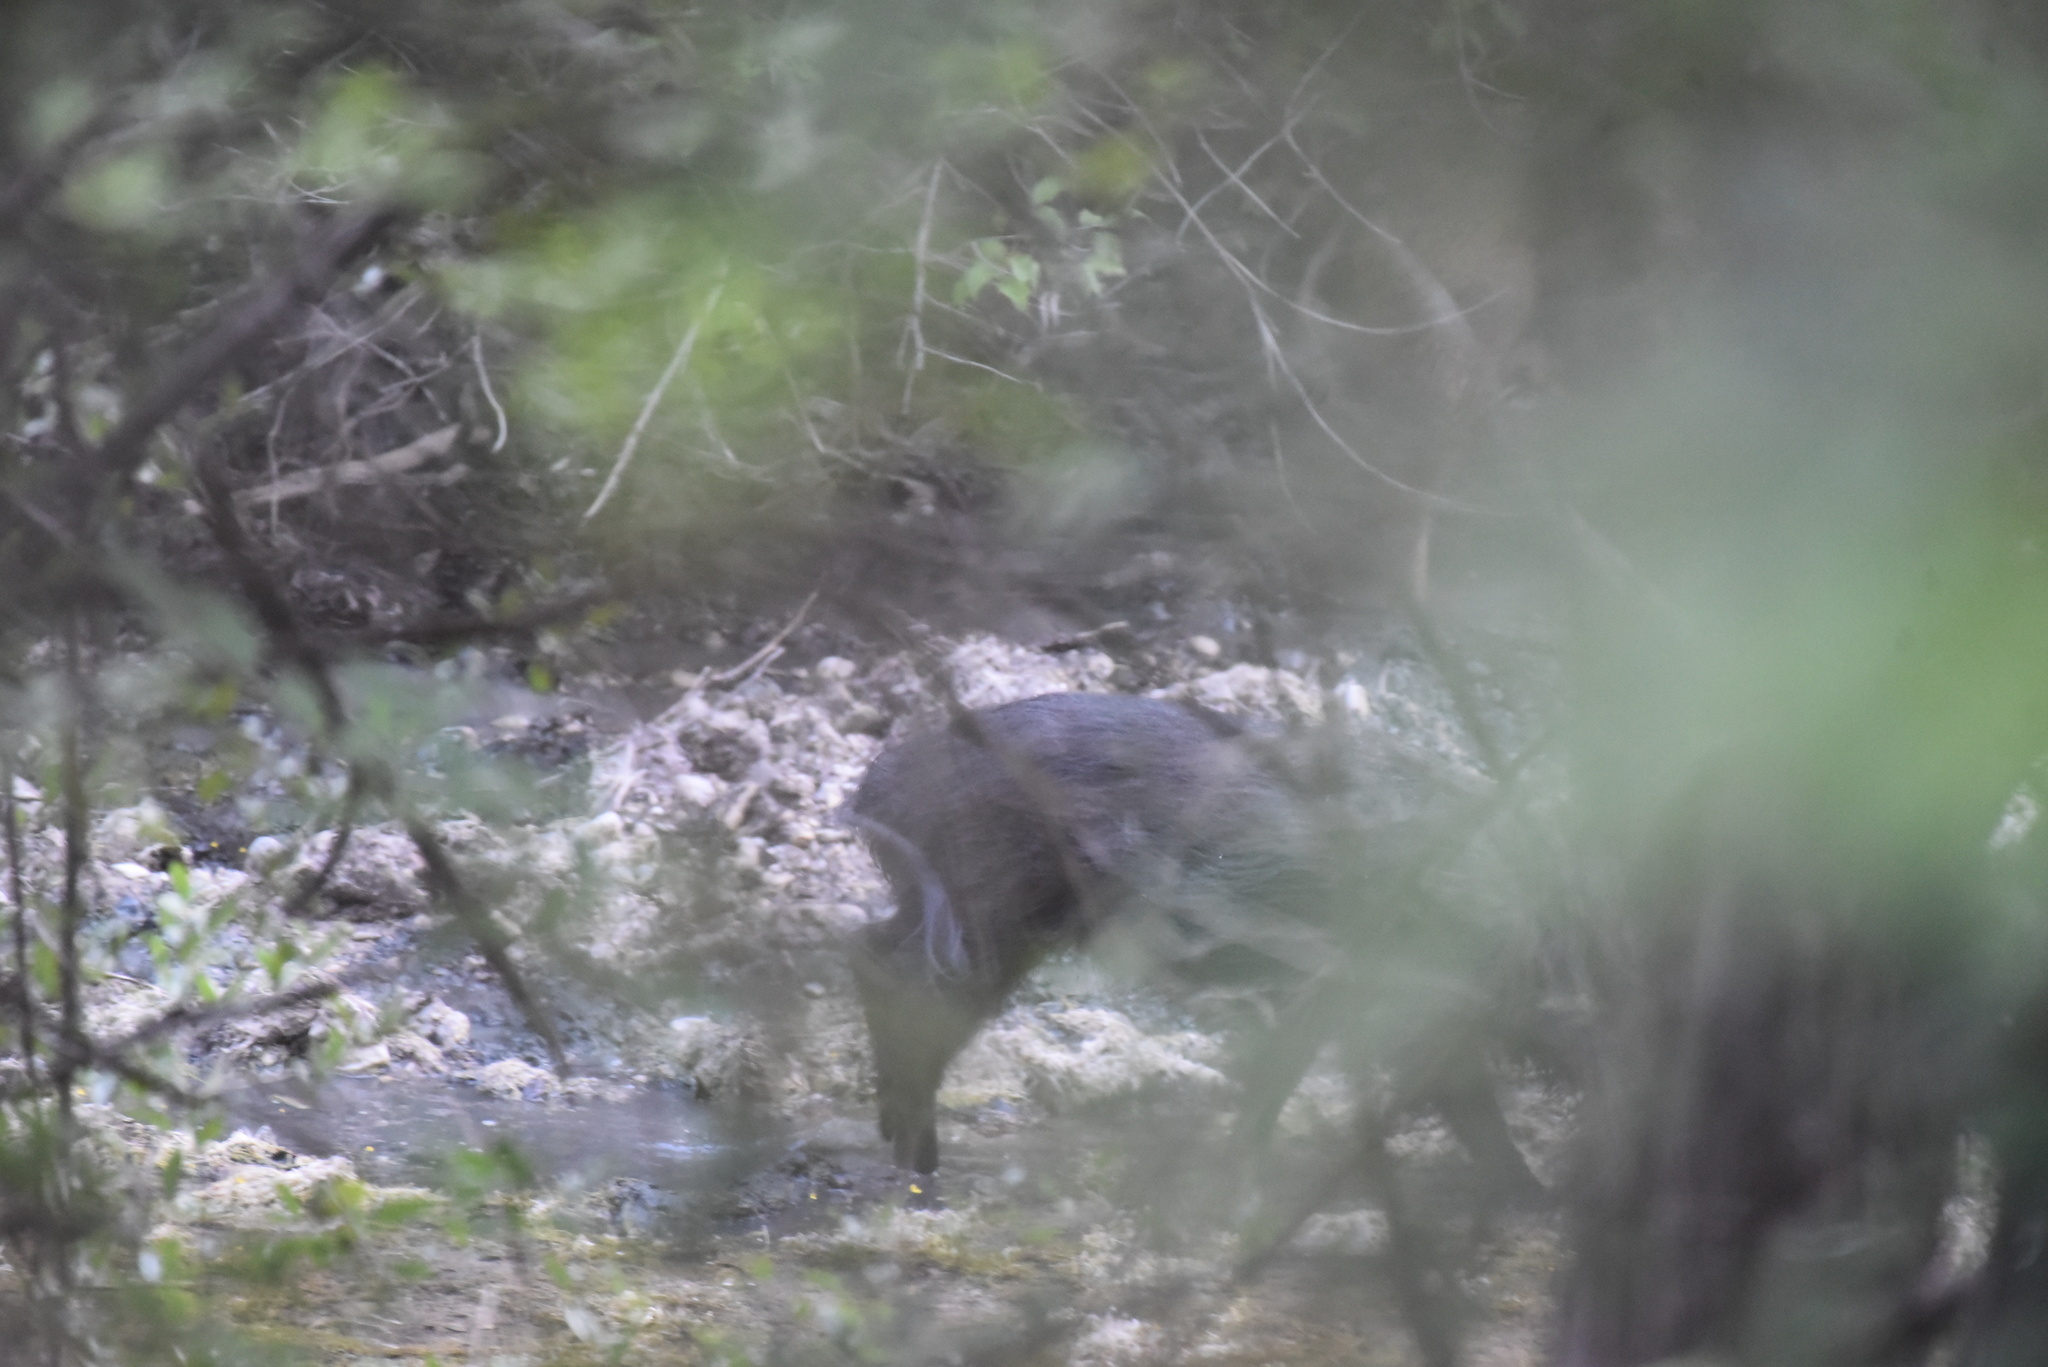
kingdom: Animalia
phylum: Chordata
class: Mammalia
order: Artiodactyla
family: Suidae
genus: Sus
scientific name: Sus scrofa
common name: Wild boar
